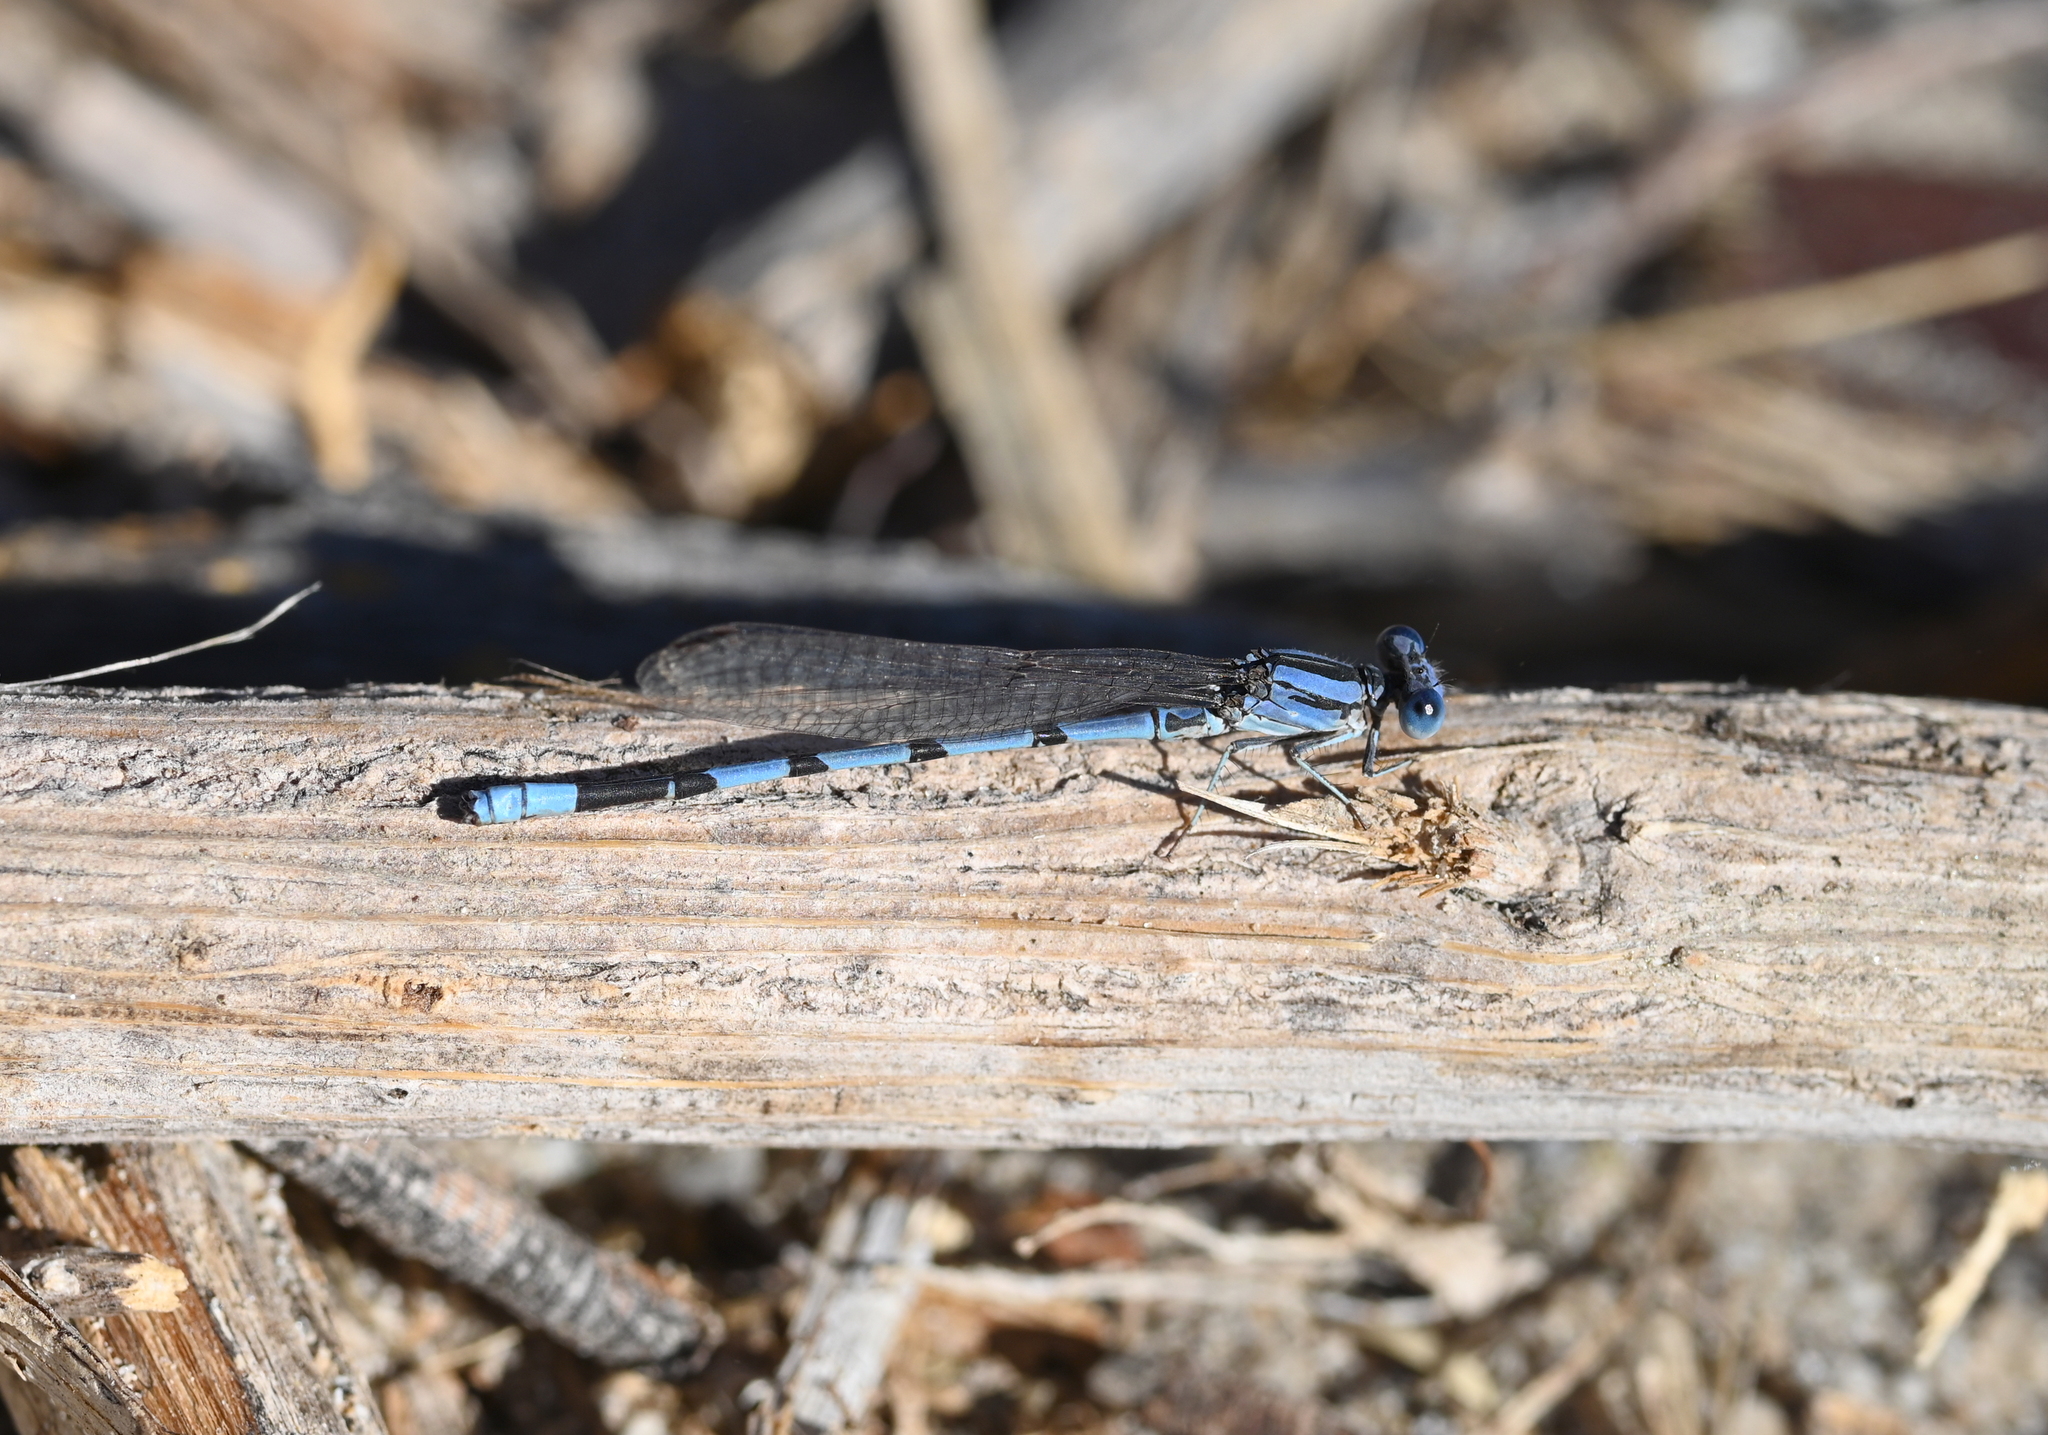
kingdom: Animalia
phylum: Arthropoda
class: Insecta
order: Odonata
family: Coenagrionidae
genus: Argia
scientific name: Argia agrioides
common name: California dancer
